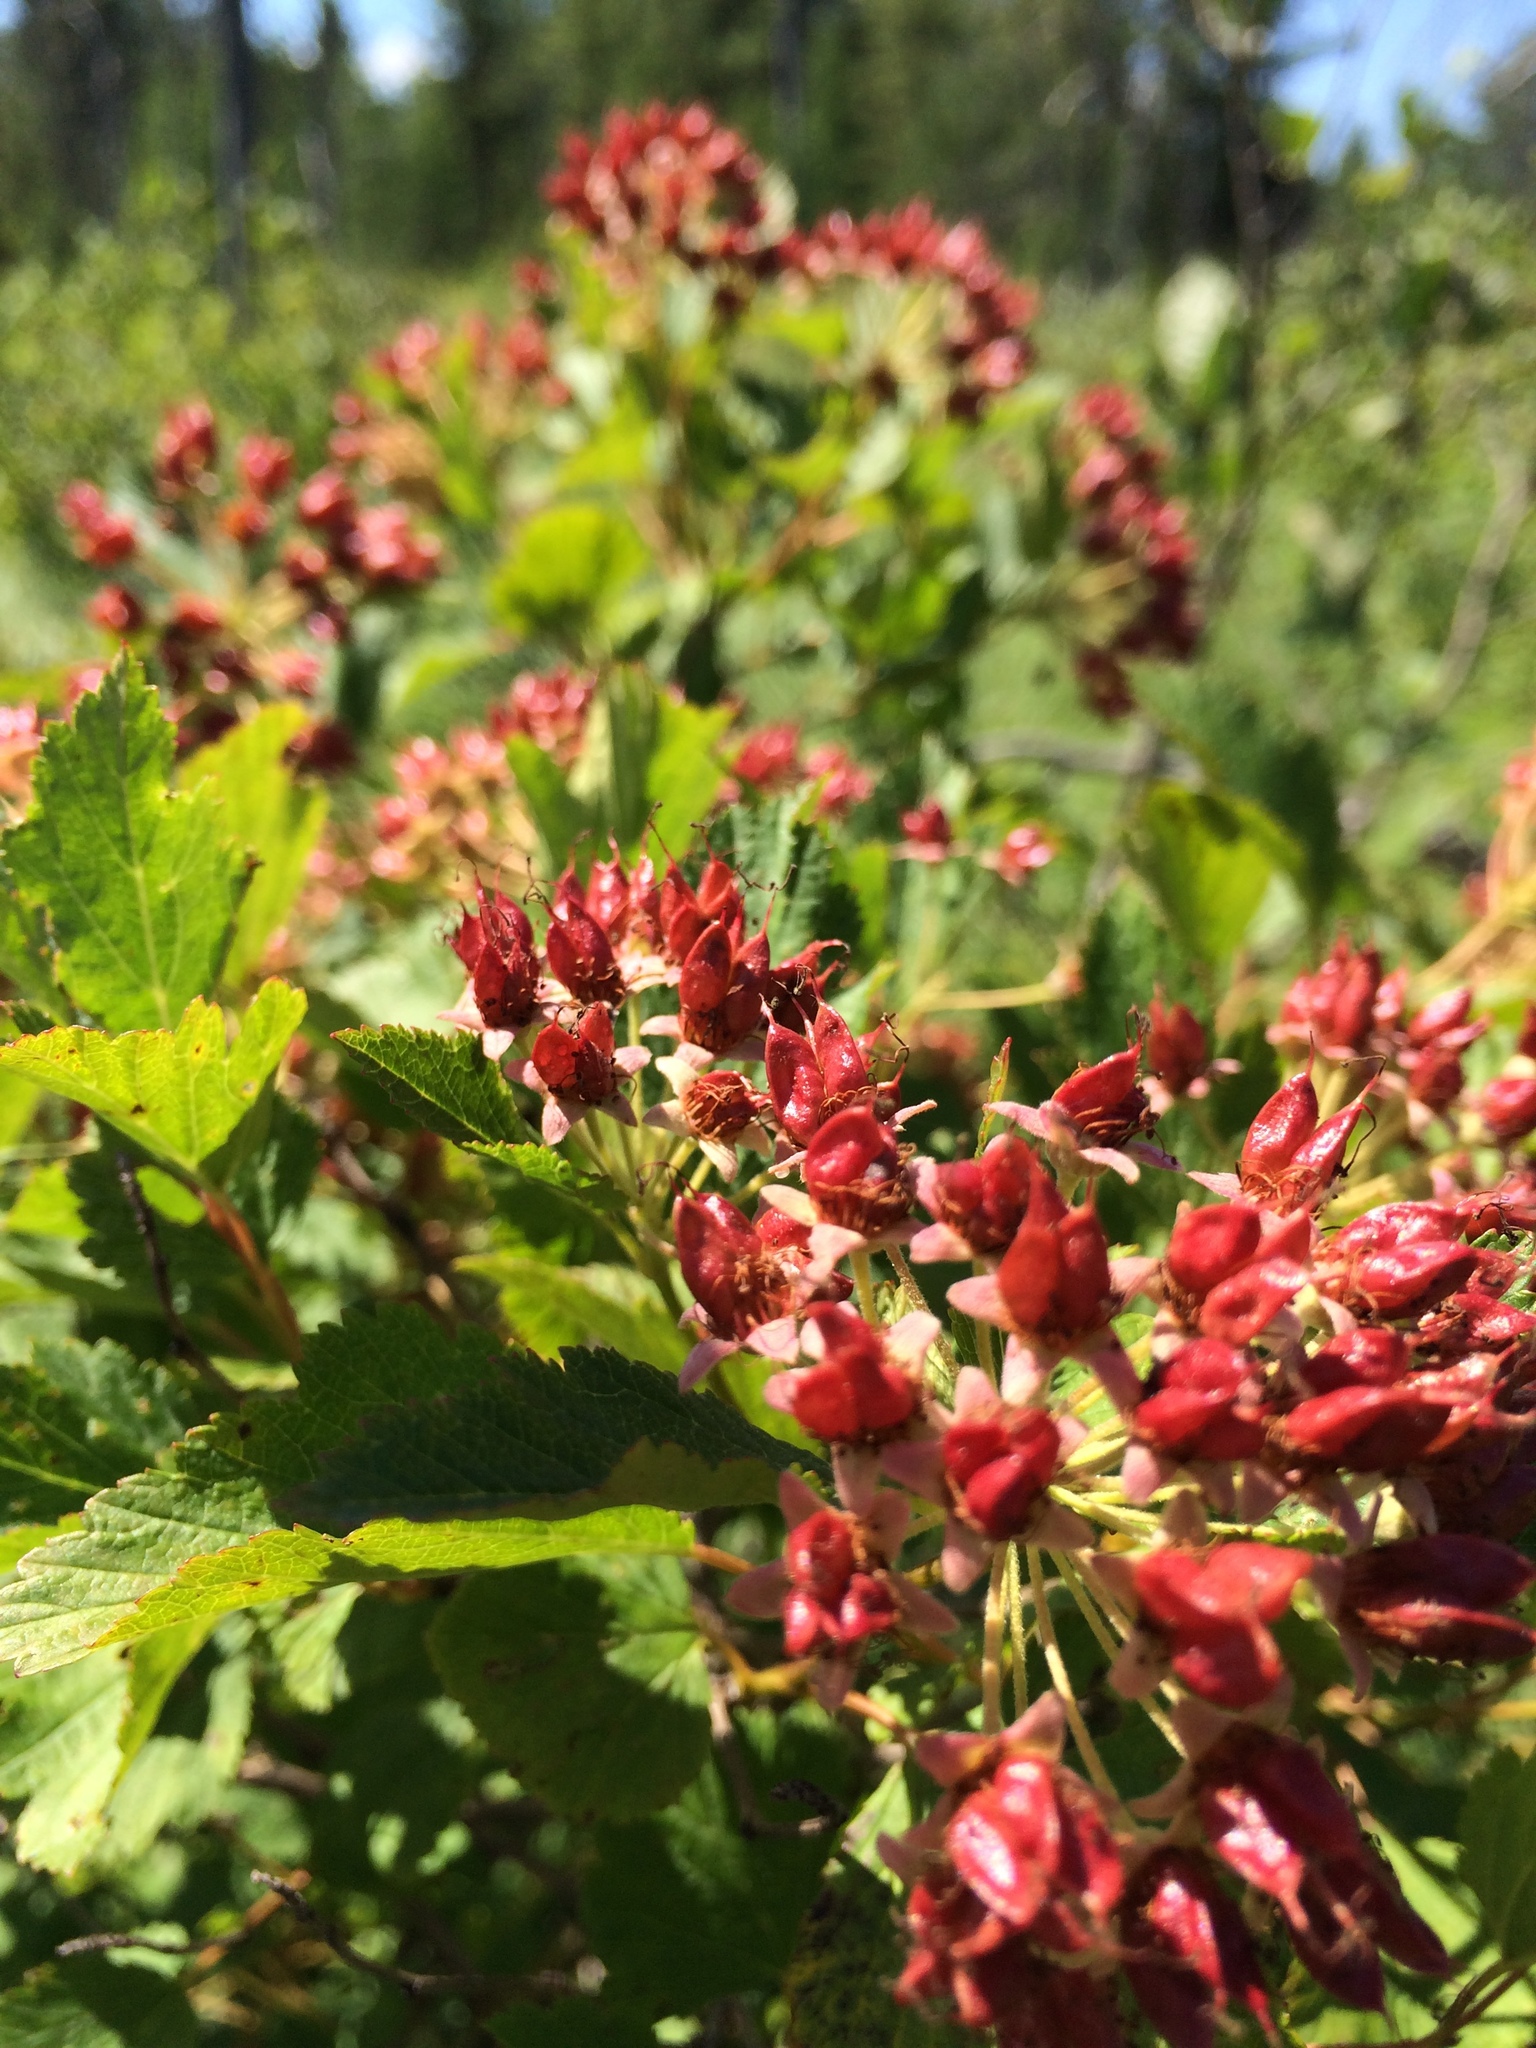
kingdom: Plantae
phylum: Tracheophyta
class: Magnoliopsida
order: Rosales
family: Rosaceae
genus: Physocarpus
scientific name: Physocarpus opulifolius
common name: Ninebark
